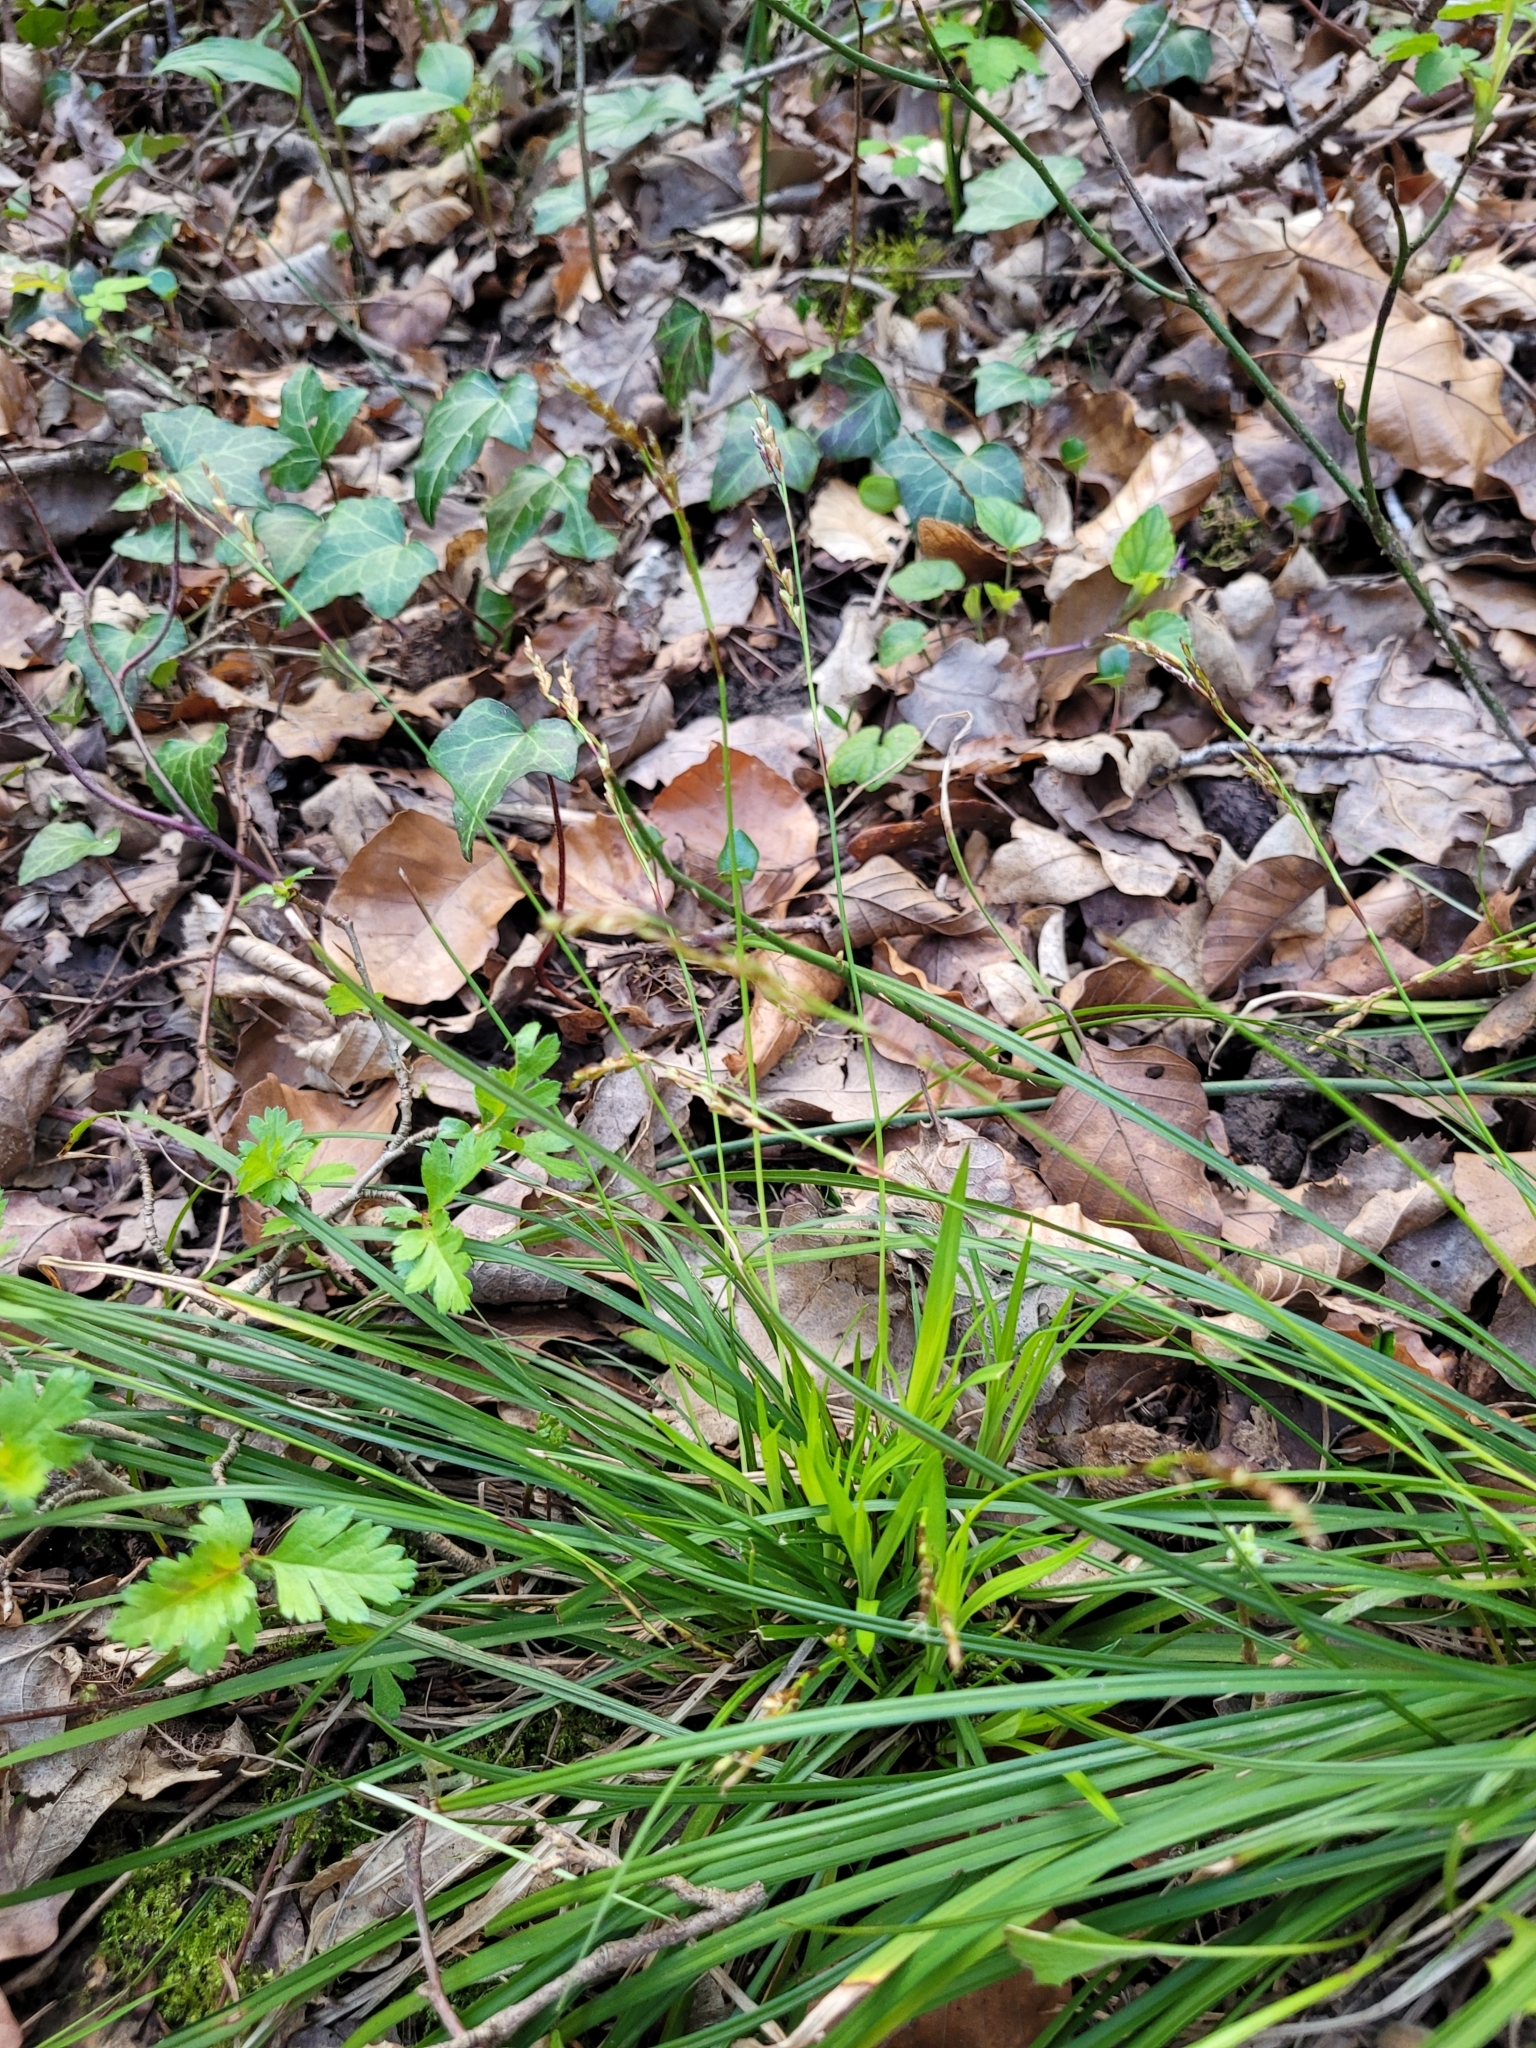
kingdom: Plantae
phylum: Tracheophyta
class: Liliopsida
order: Poales
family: Cyperaceae
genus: Carex
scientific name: Carex digitata
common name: Fingered sedge
